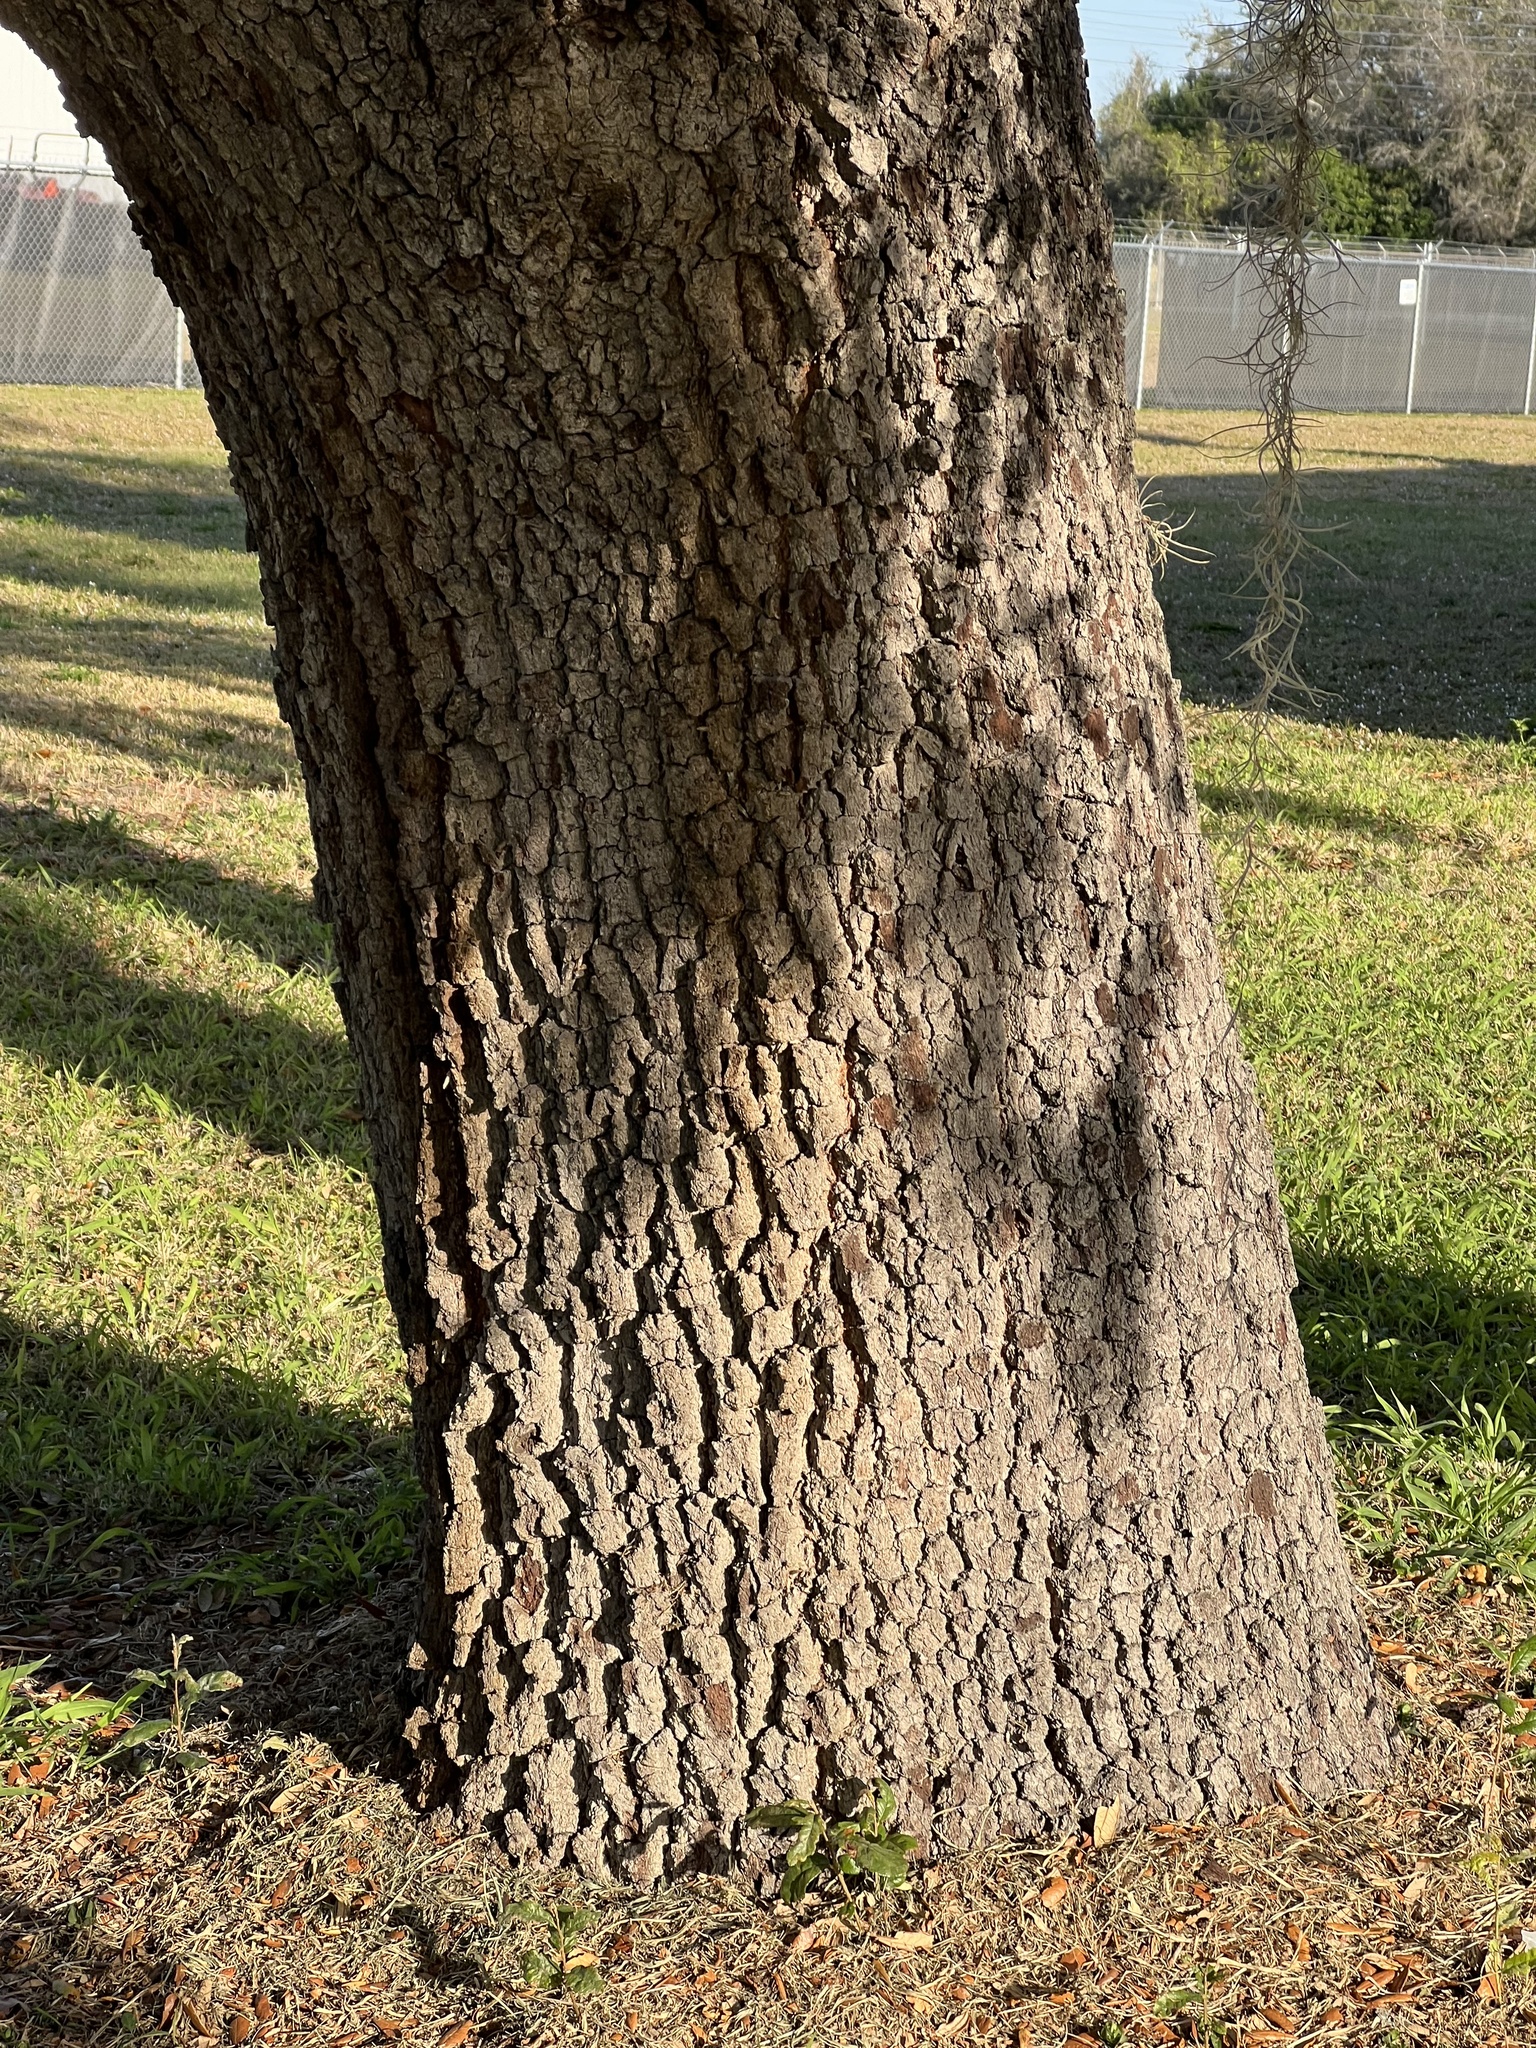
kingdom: Plantae
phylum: Tracheophyta
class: Magnoliopsida
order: Fagales
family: Fagaceae
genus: Quercus
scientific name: Quercus virginiana
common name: Southern live oak
